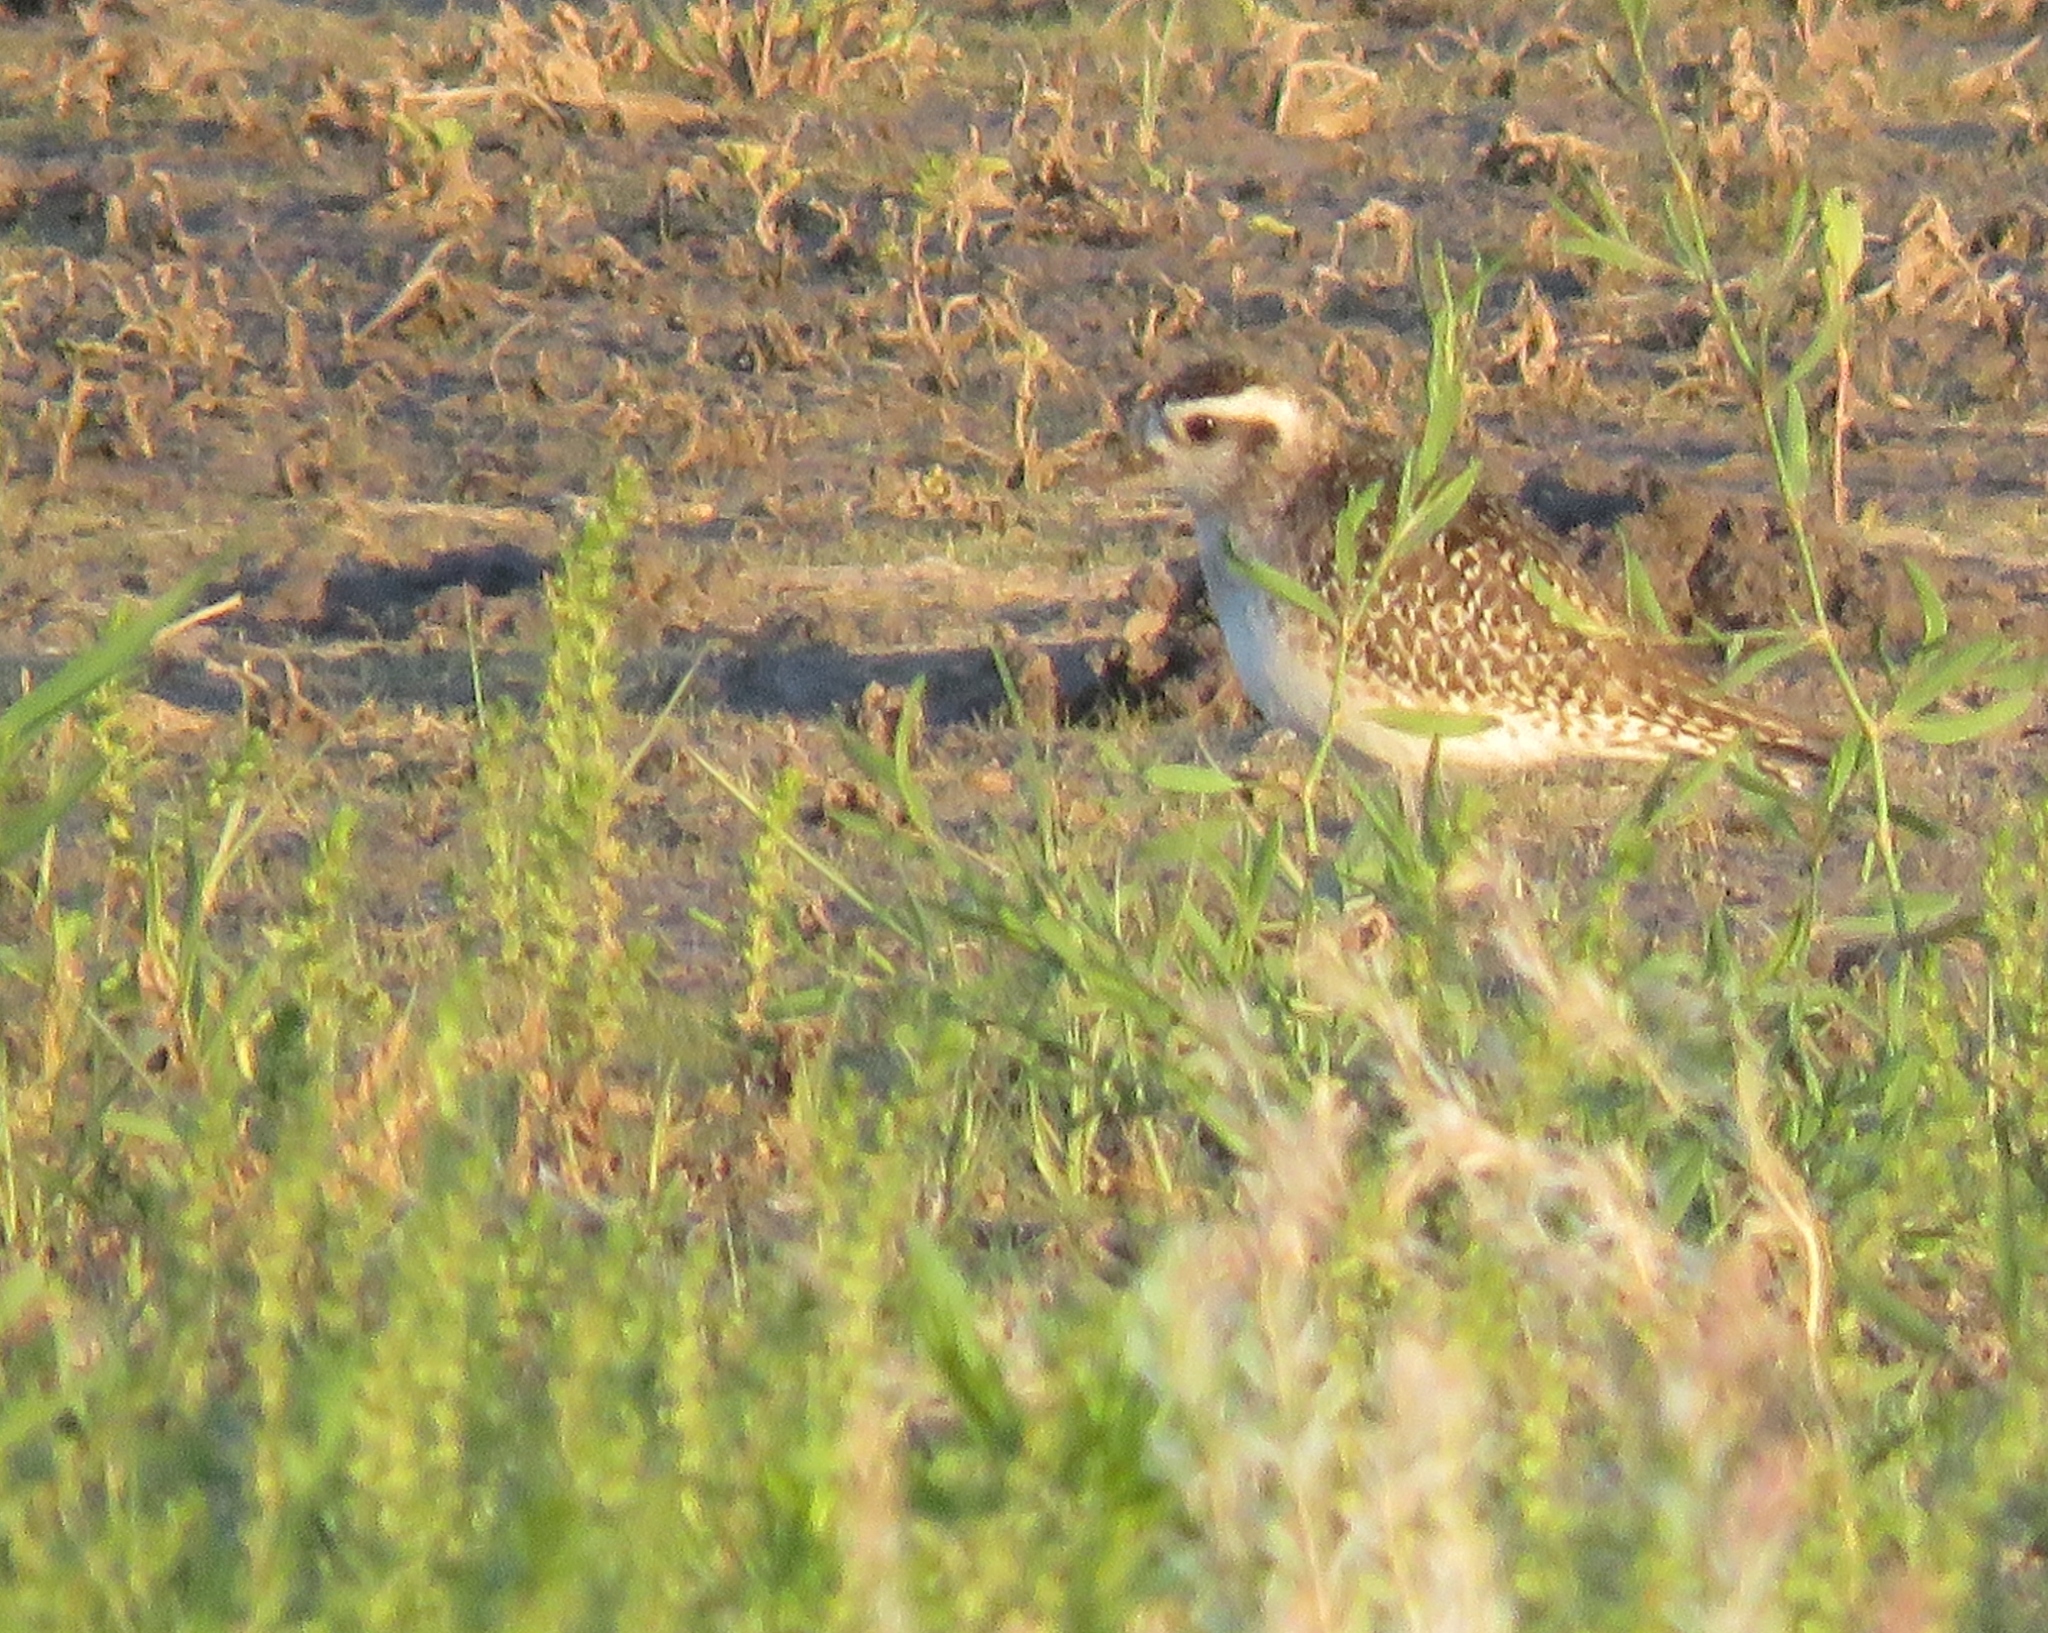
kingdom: Animalia
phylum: Chordata
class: Aves
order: Charadriiformes
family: Charadriidae
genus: Pluvialis
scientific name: Pluvialis dominica
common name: American golden plover
